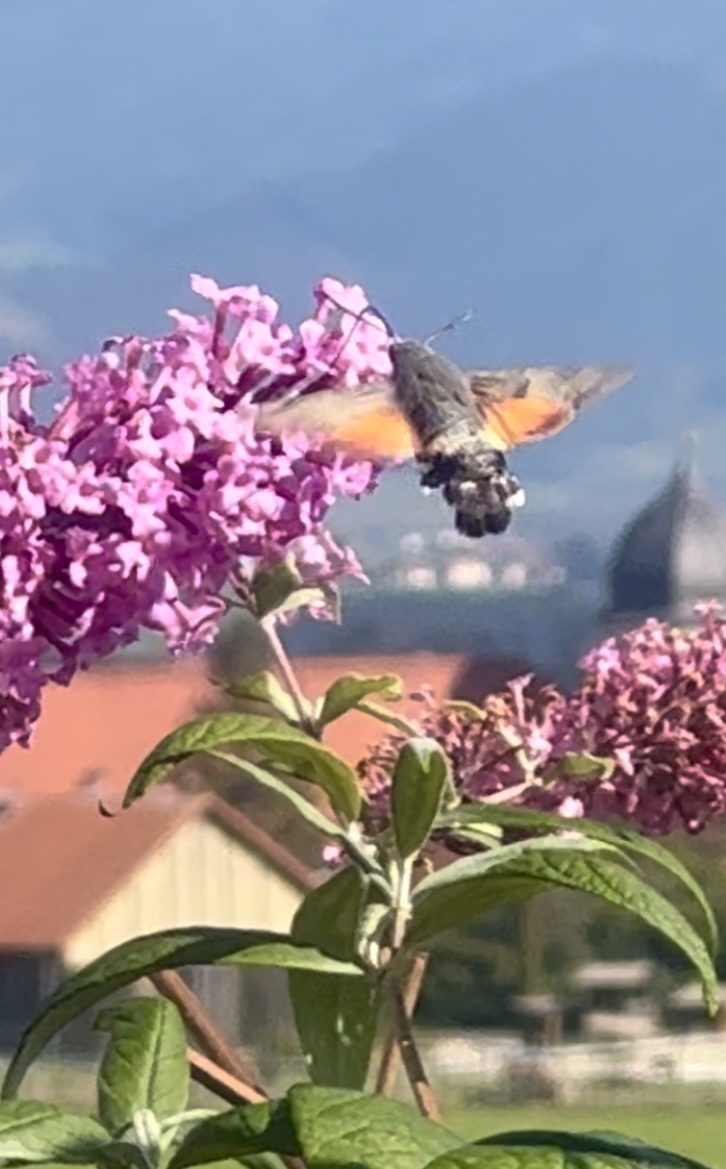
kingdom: Animalia
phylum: Arthropoda
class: Insecta
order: Lepidoptera
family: Sphingidae
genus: Macroglossum
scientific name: Macroglossum stellatarum
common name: Humming-bird hawk-moth
